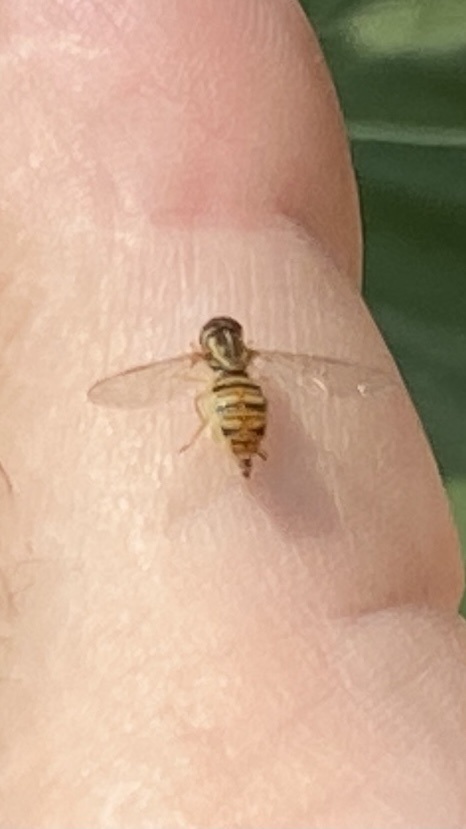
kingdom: Animalia
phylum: Arthropoda
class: Insecta
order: Diptera
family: Syrphidae
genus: Toxomerus
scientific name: Toxomerus politus
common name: Maize calligrapher
